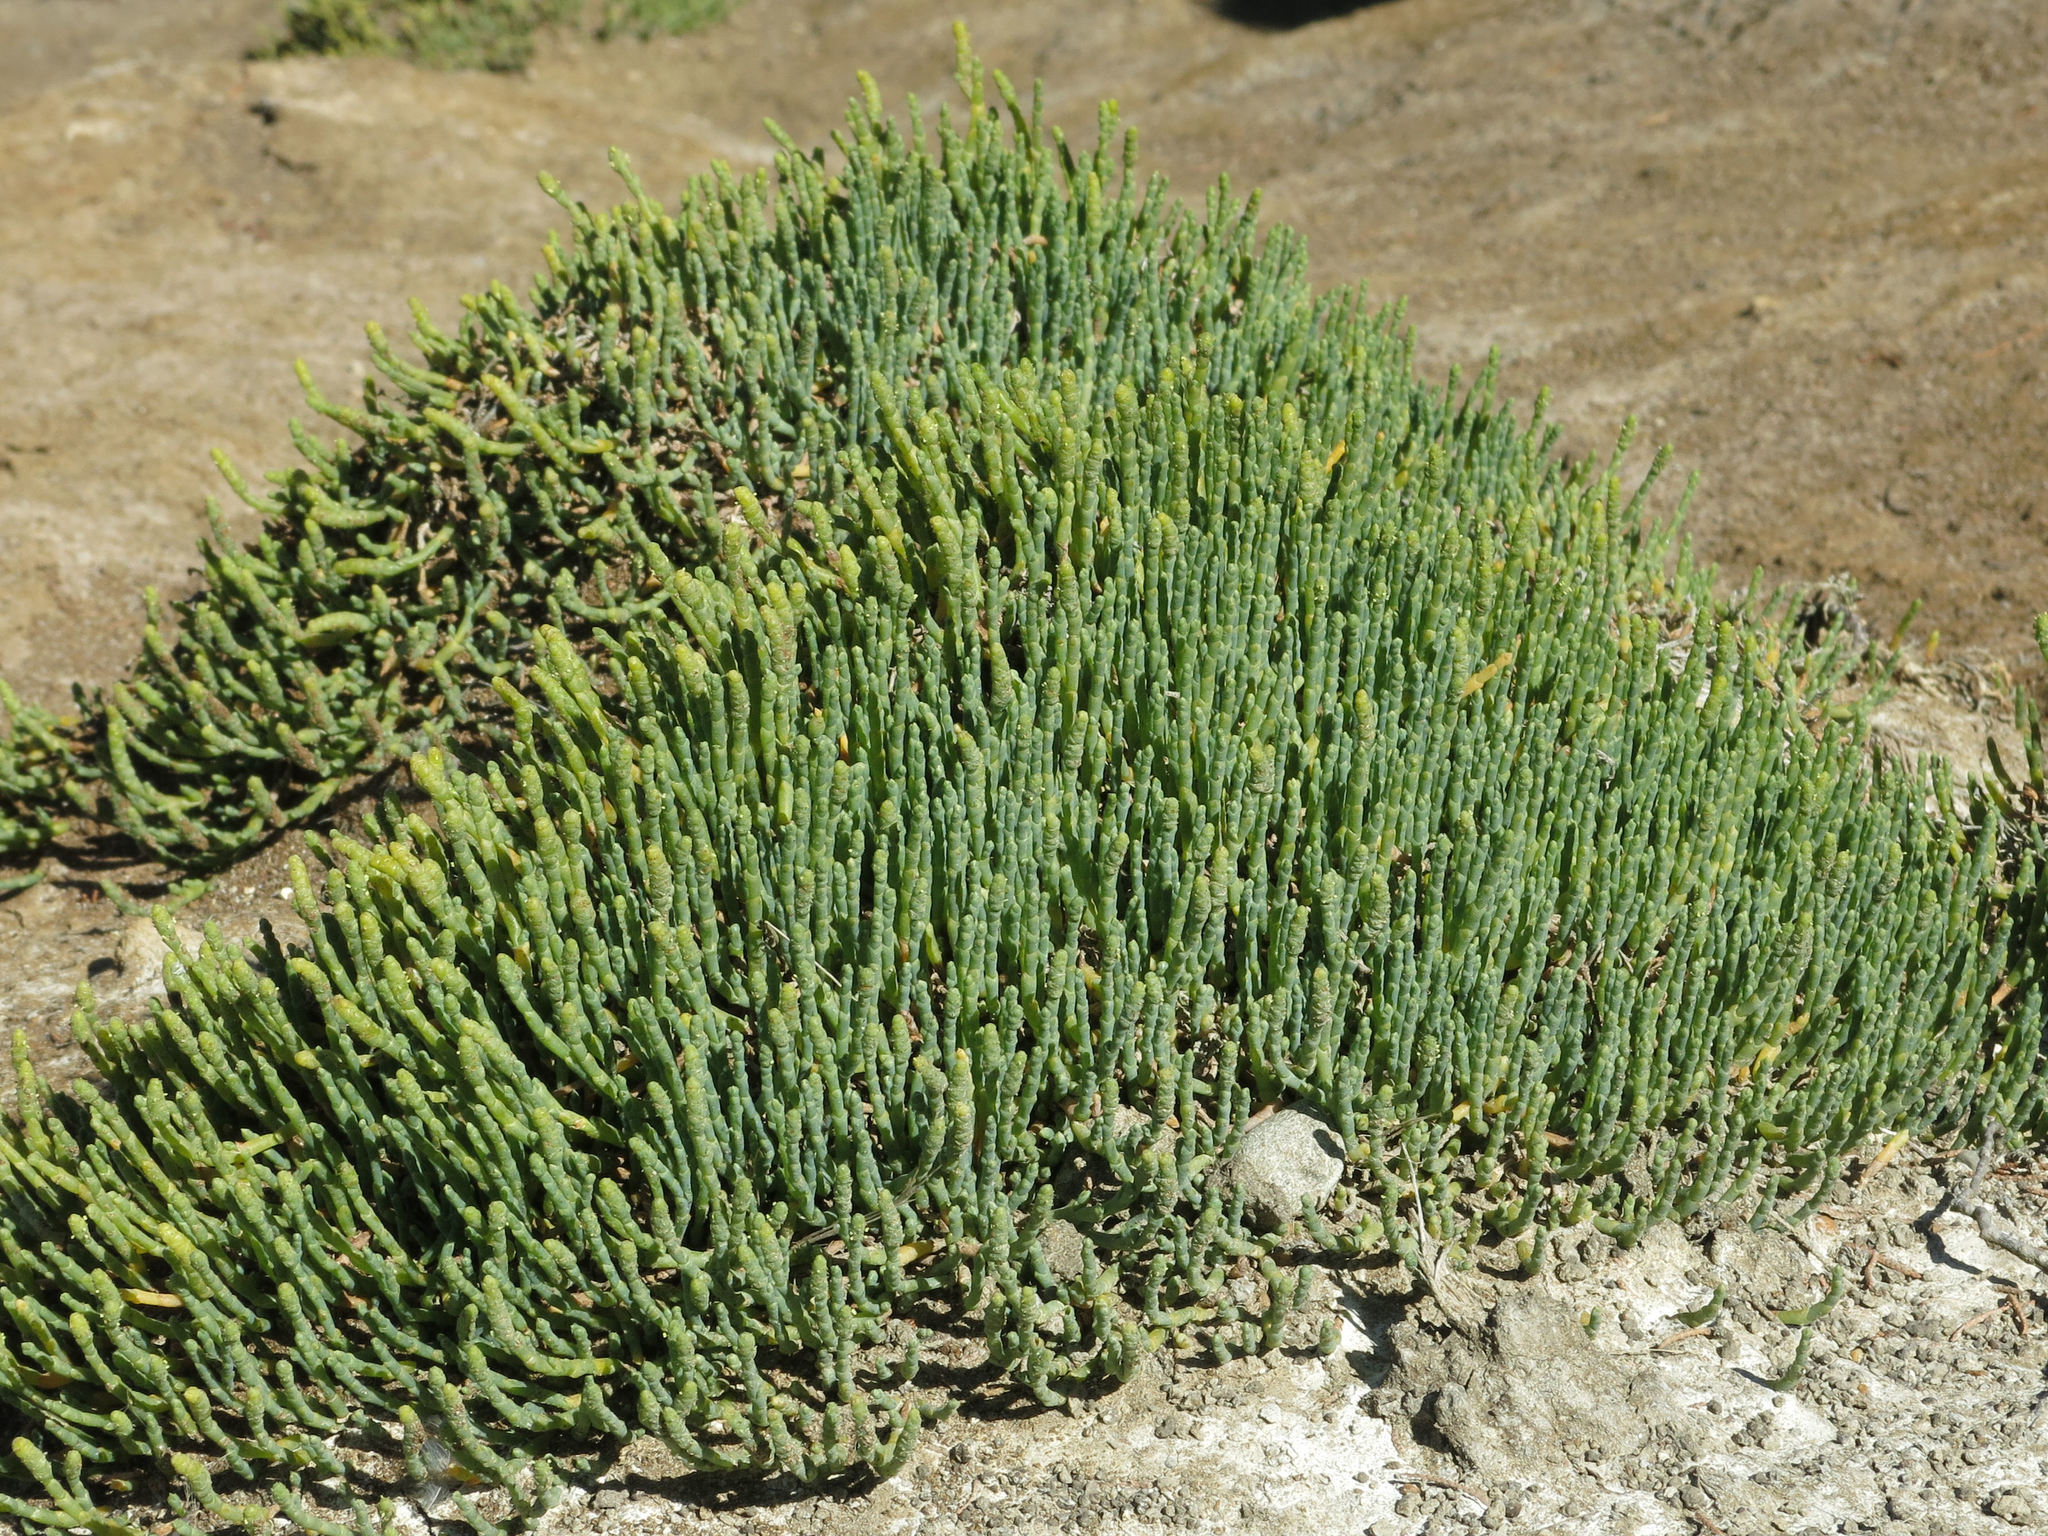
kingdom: Plantae
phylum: Tracheophyta
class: Magnoliopsida
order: Caryophyllales
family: Amaranthaceae
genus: Salicornia
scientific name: Salicornia quinqueflora
